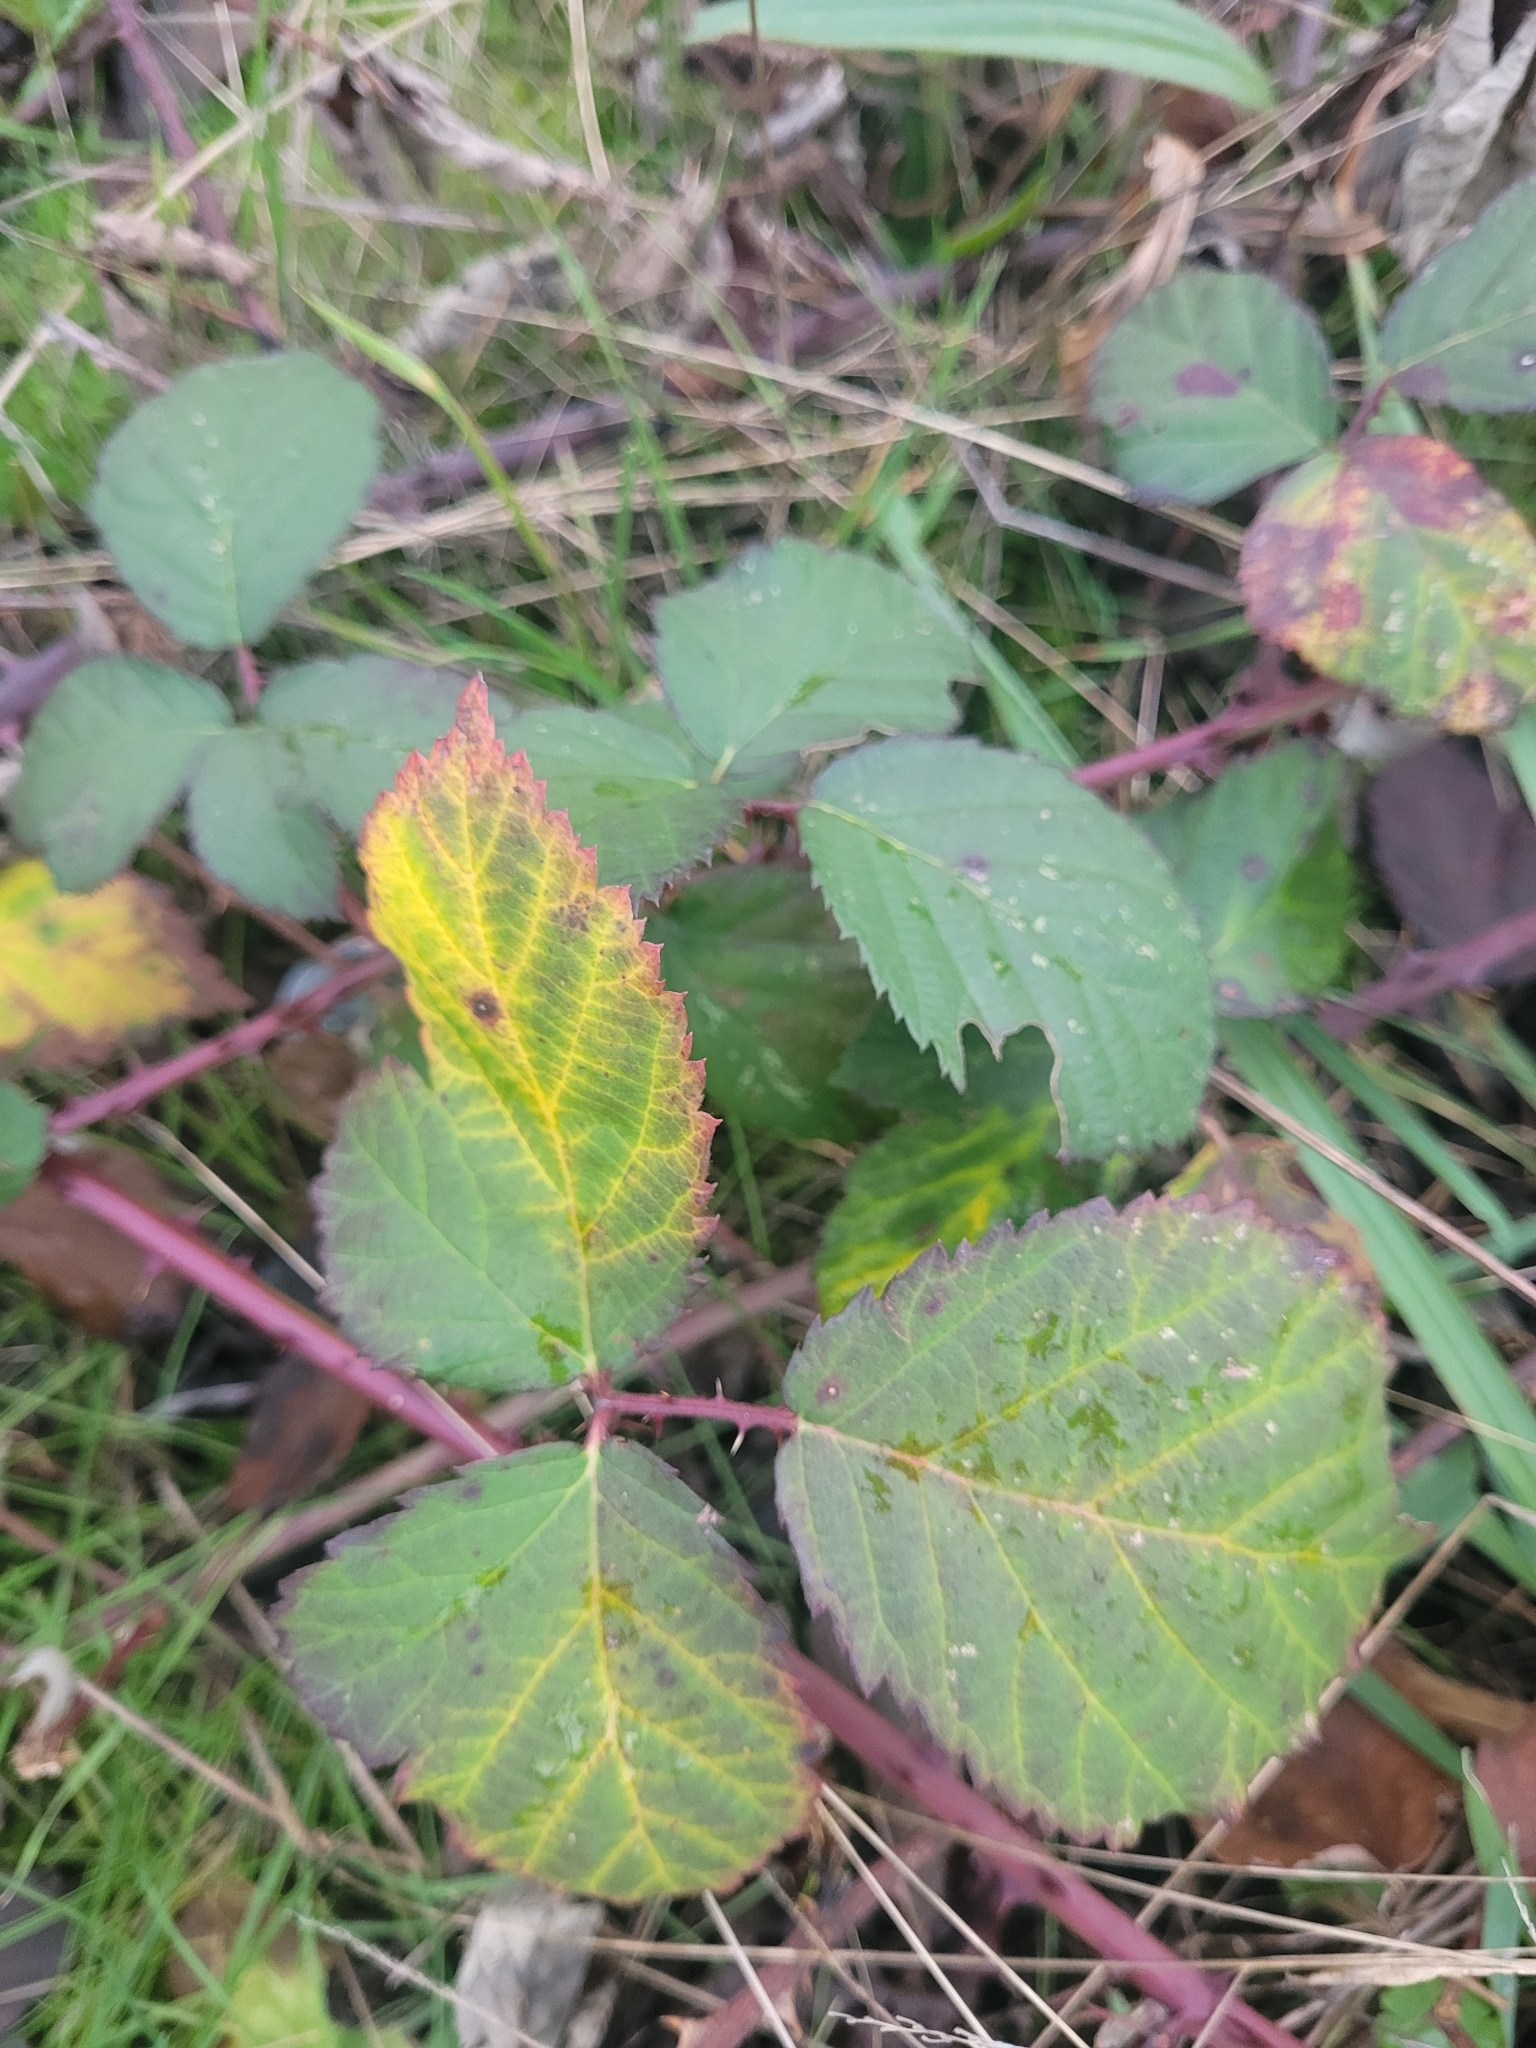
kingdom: Plantae
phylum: Tracheophyta
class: Magnoliopsida
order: Rosales
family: Rosaceae
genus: Rubus
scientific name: Rubus armeniacus
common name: Himalayan blackberry
